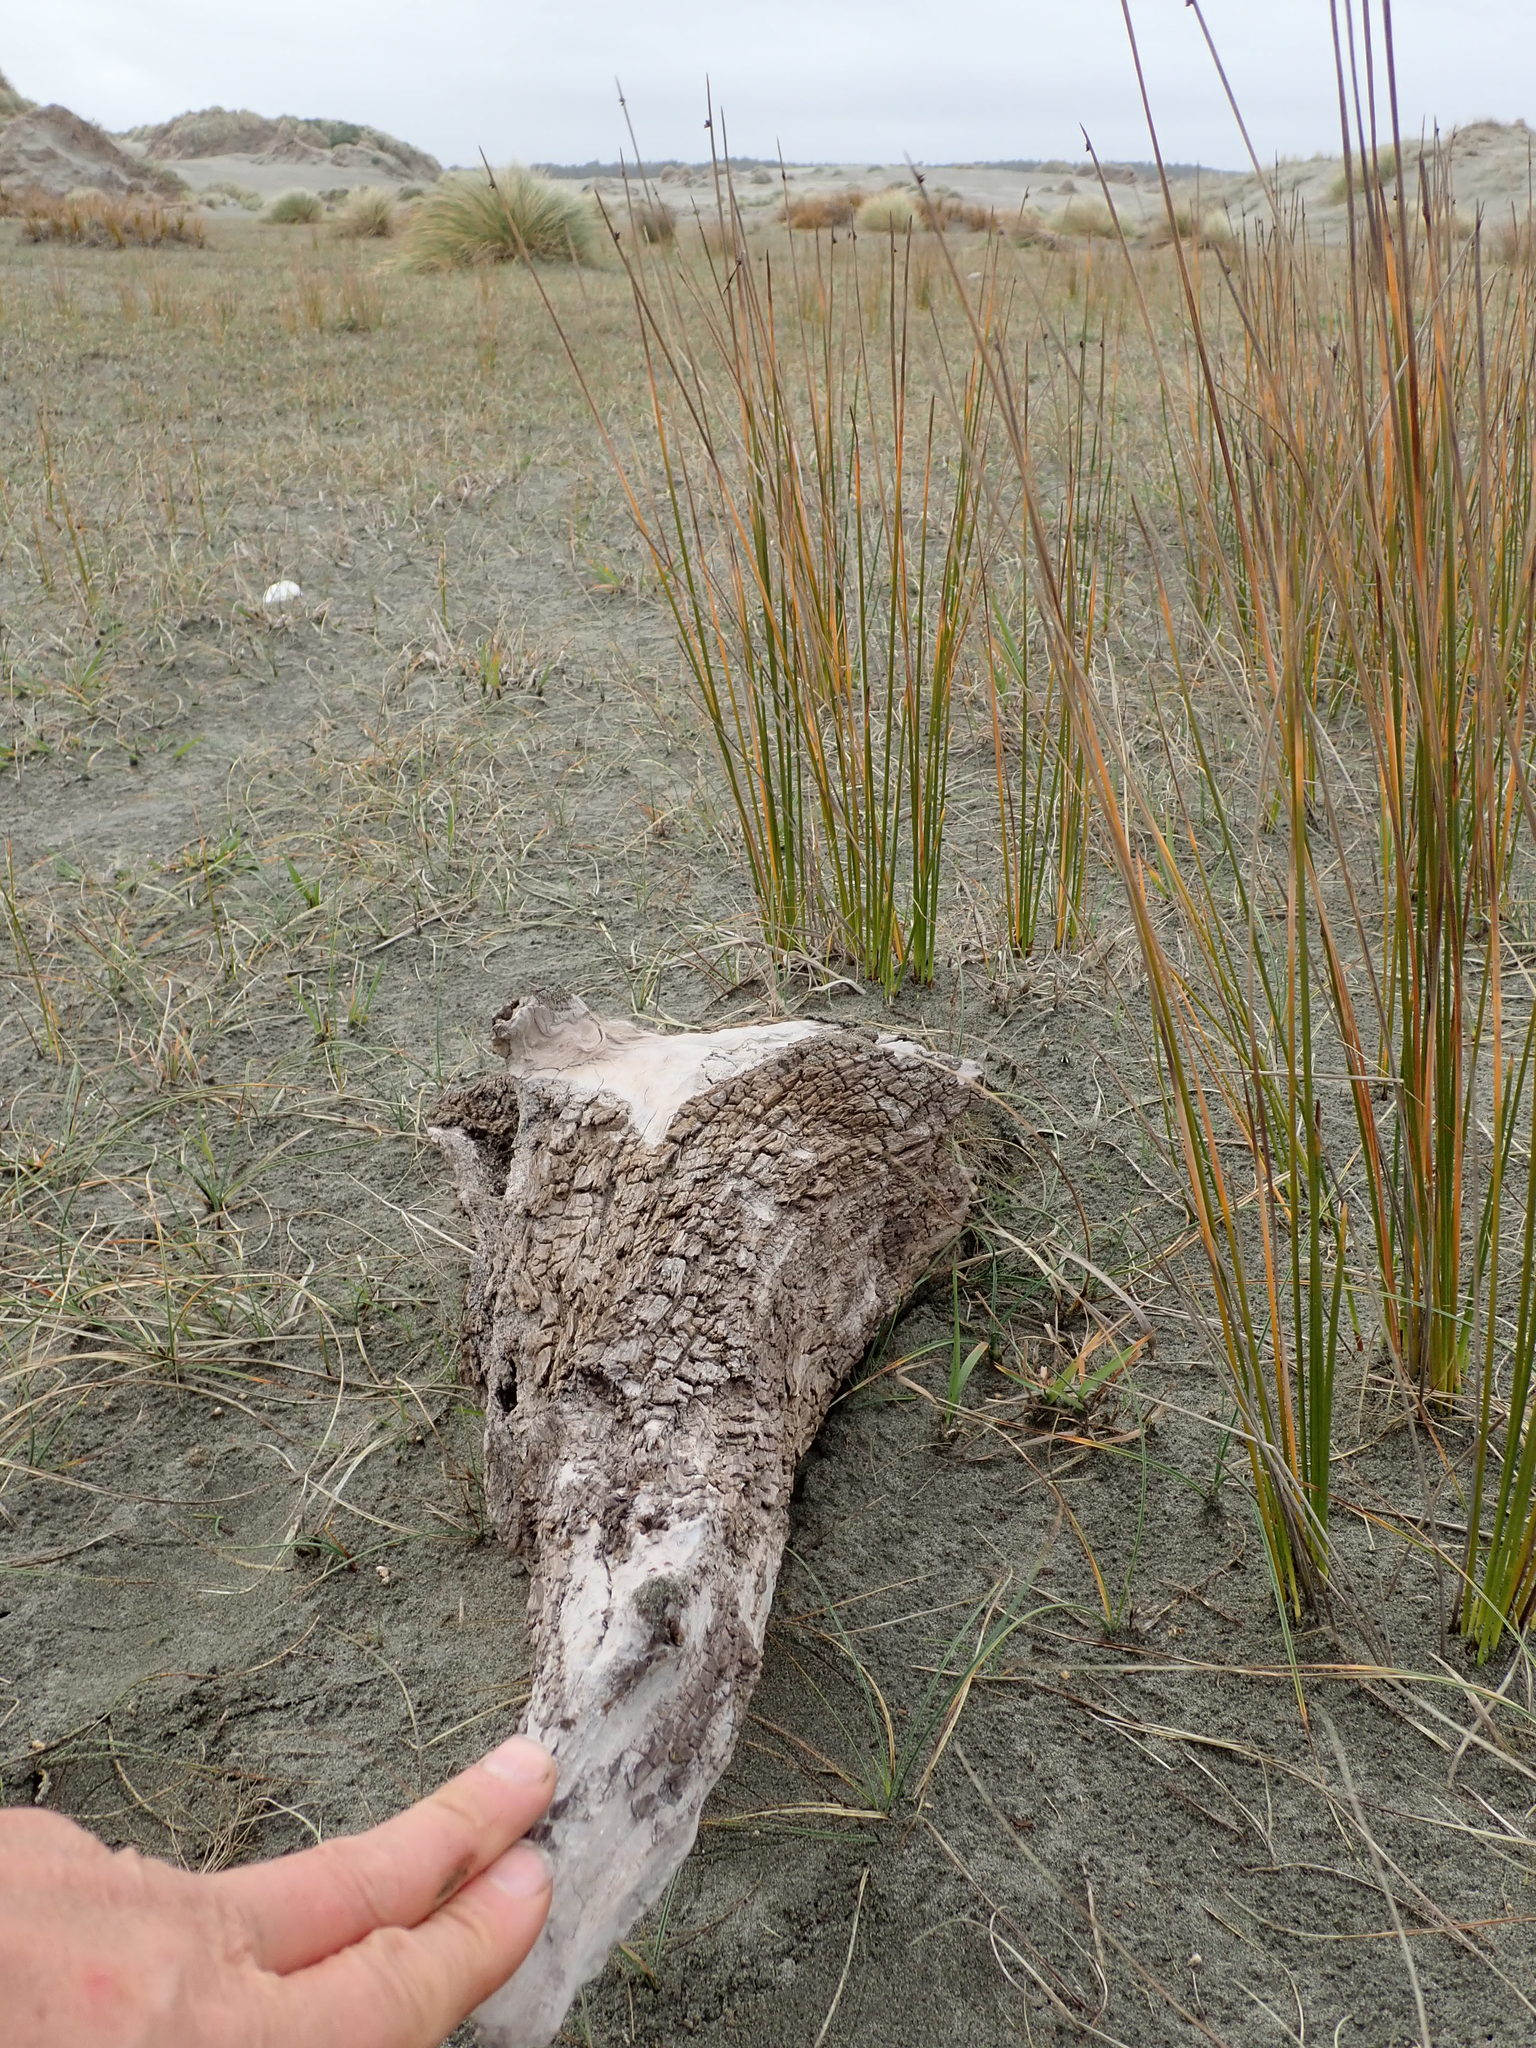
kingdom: Animalia
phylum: Arthropoda
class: Arachnida
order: Araneae
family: Theridiidae
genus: Steatoda
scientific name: Steatoda capensis
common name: Cobweb weaver
